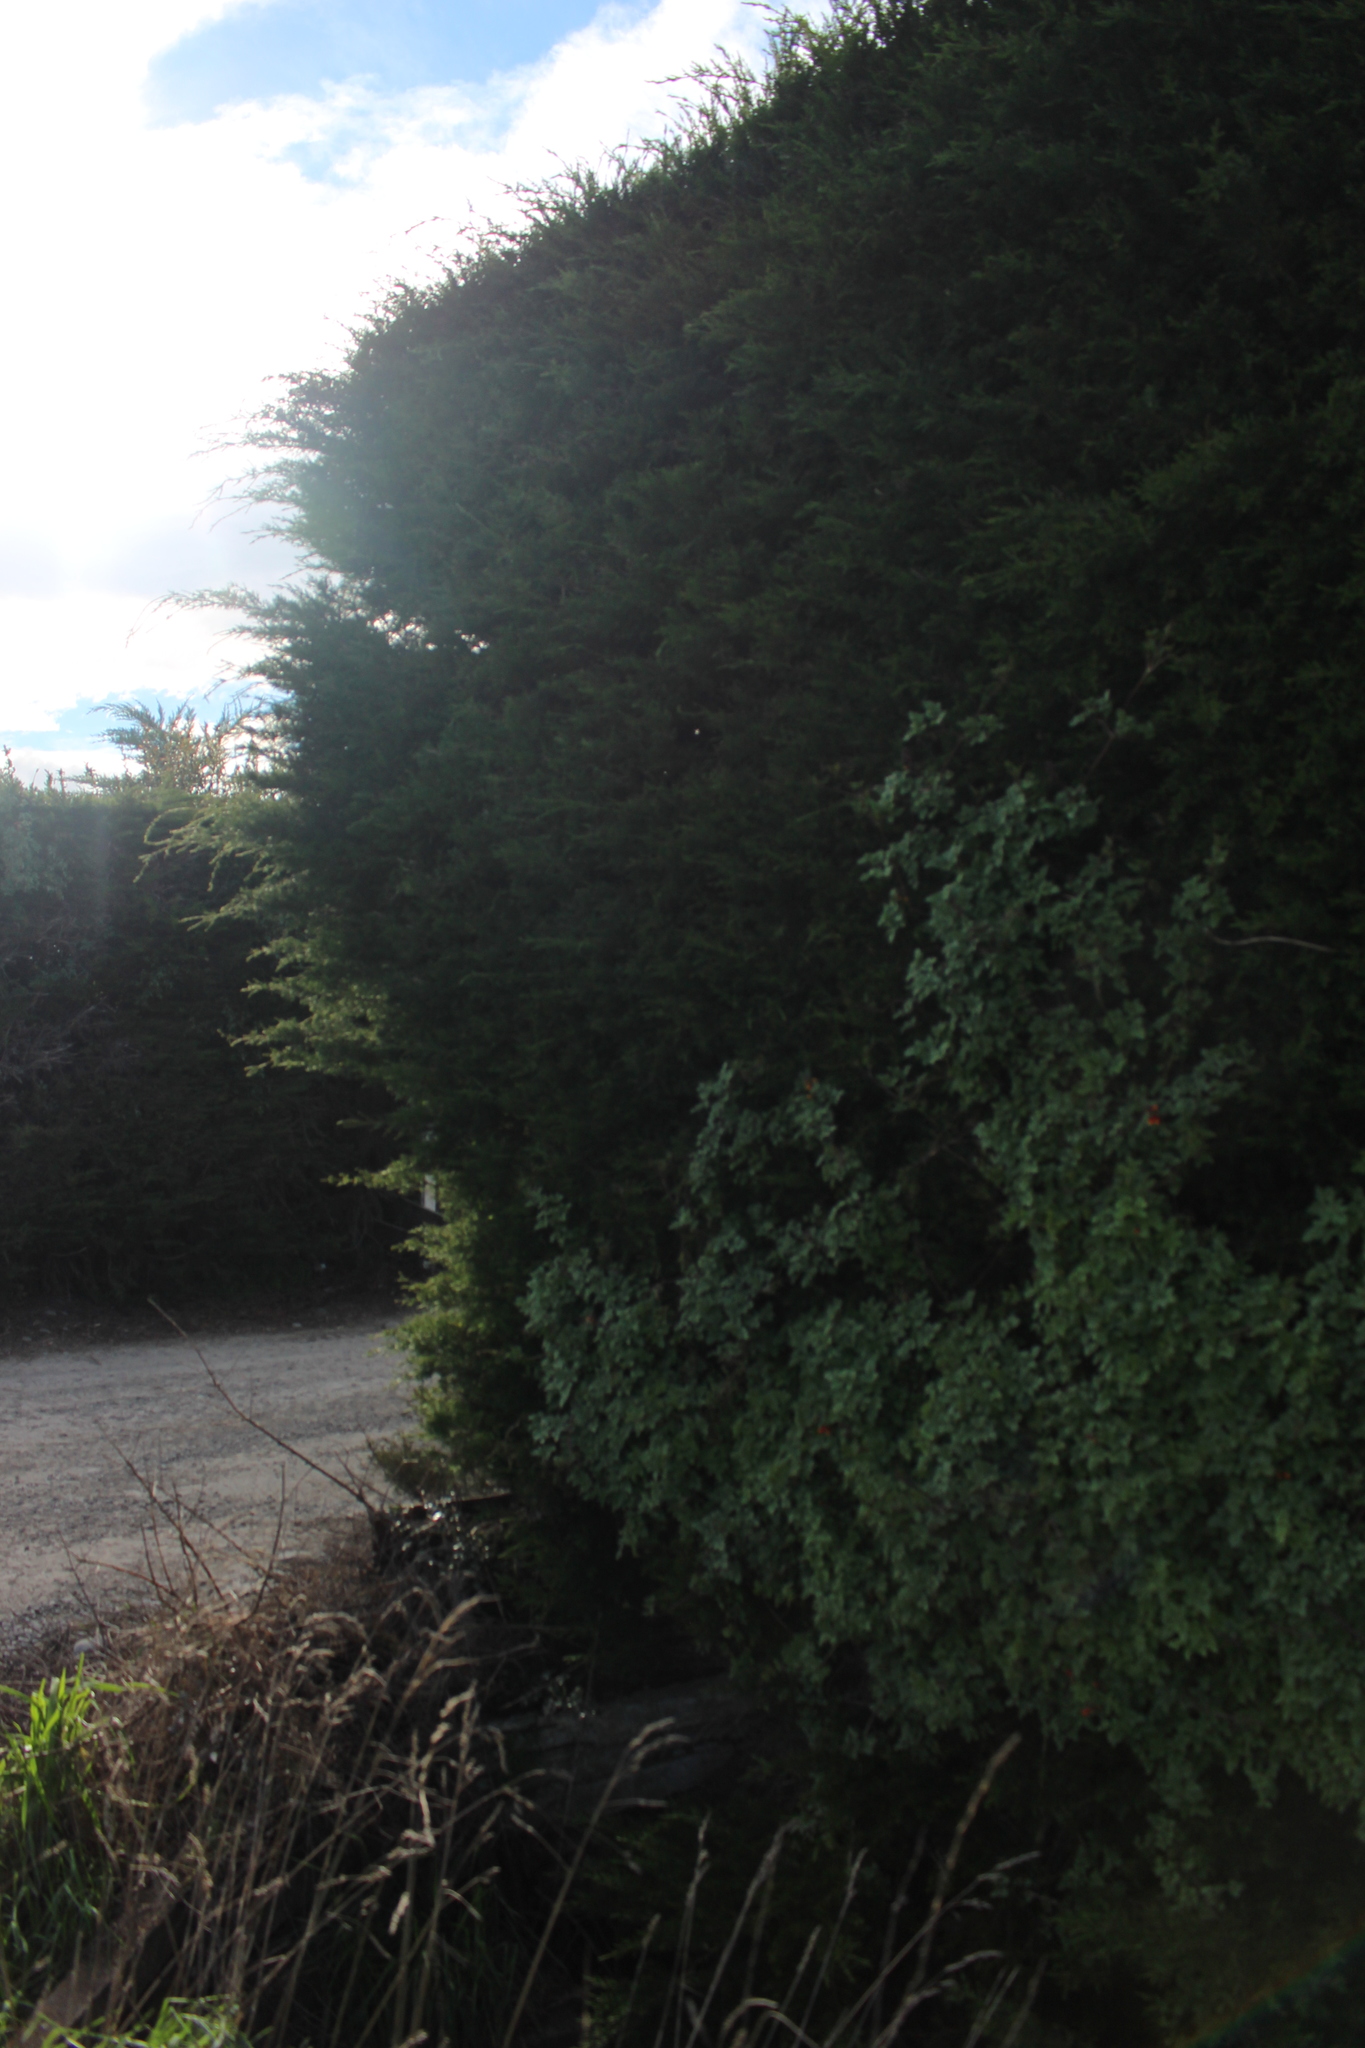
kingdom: Plantae
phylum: Tracheophyta
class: Magnoliopsida
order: Lamiales
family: Bignoniaceae
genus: Eccremocarpus
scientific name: Eccremocarpus scaber
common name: Chilean glory-flower
